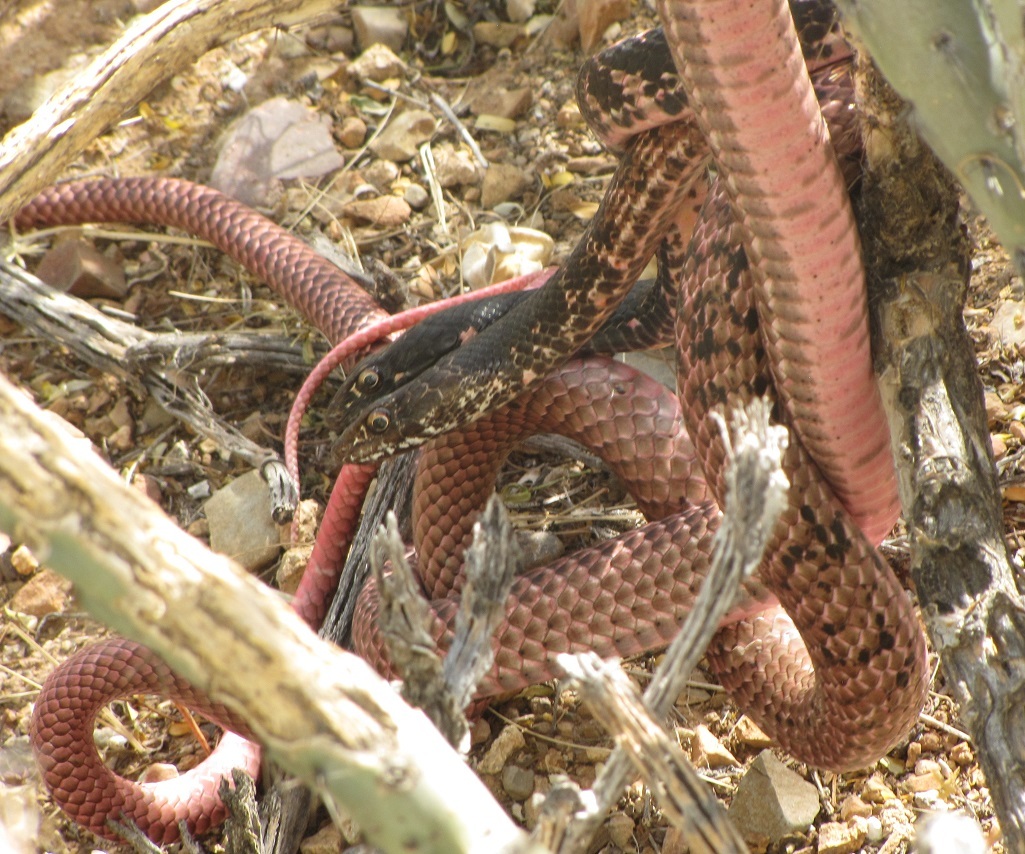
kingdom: Animalia
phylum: Chordata
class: Squamata
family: Colubridae
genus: Masticophis
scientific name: Masticophis flagellum
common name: Coachwhip
